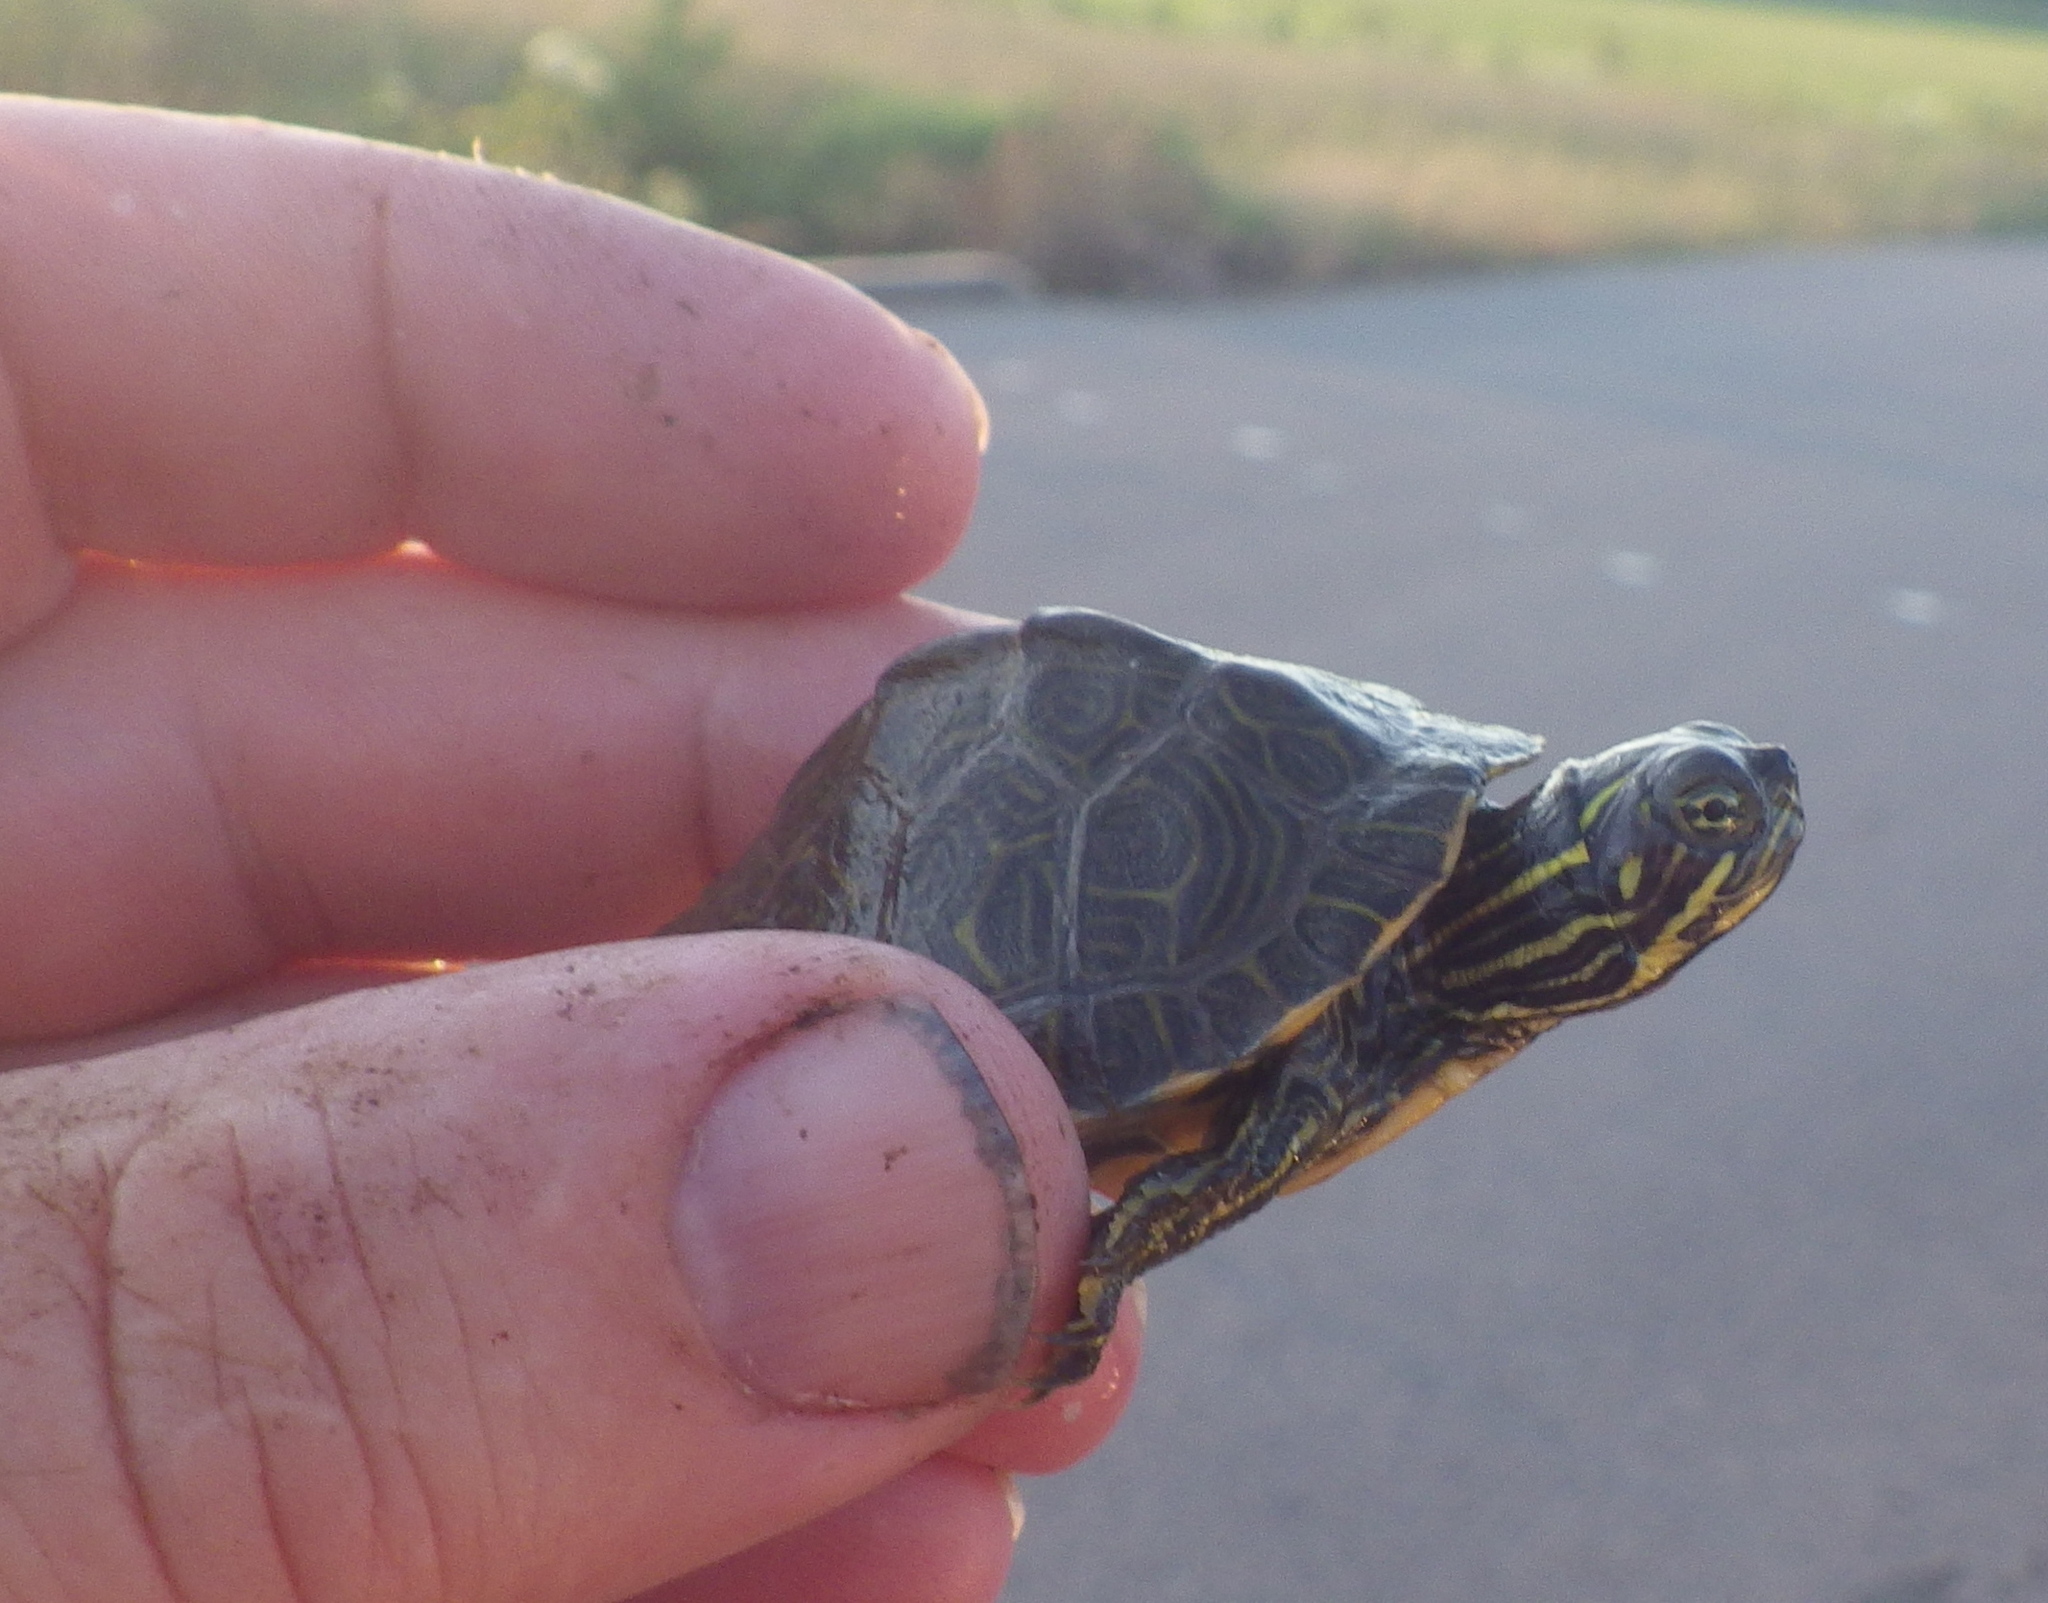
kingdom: Animalia
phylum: Chordata
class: Testudines
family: Emydidae
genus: Pseudemys
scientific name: Pseudemys concinna
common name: Eastern river cooter
